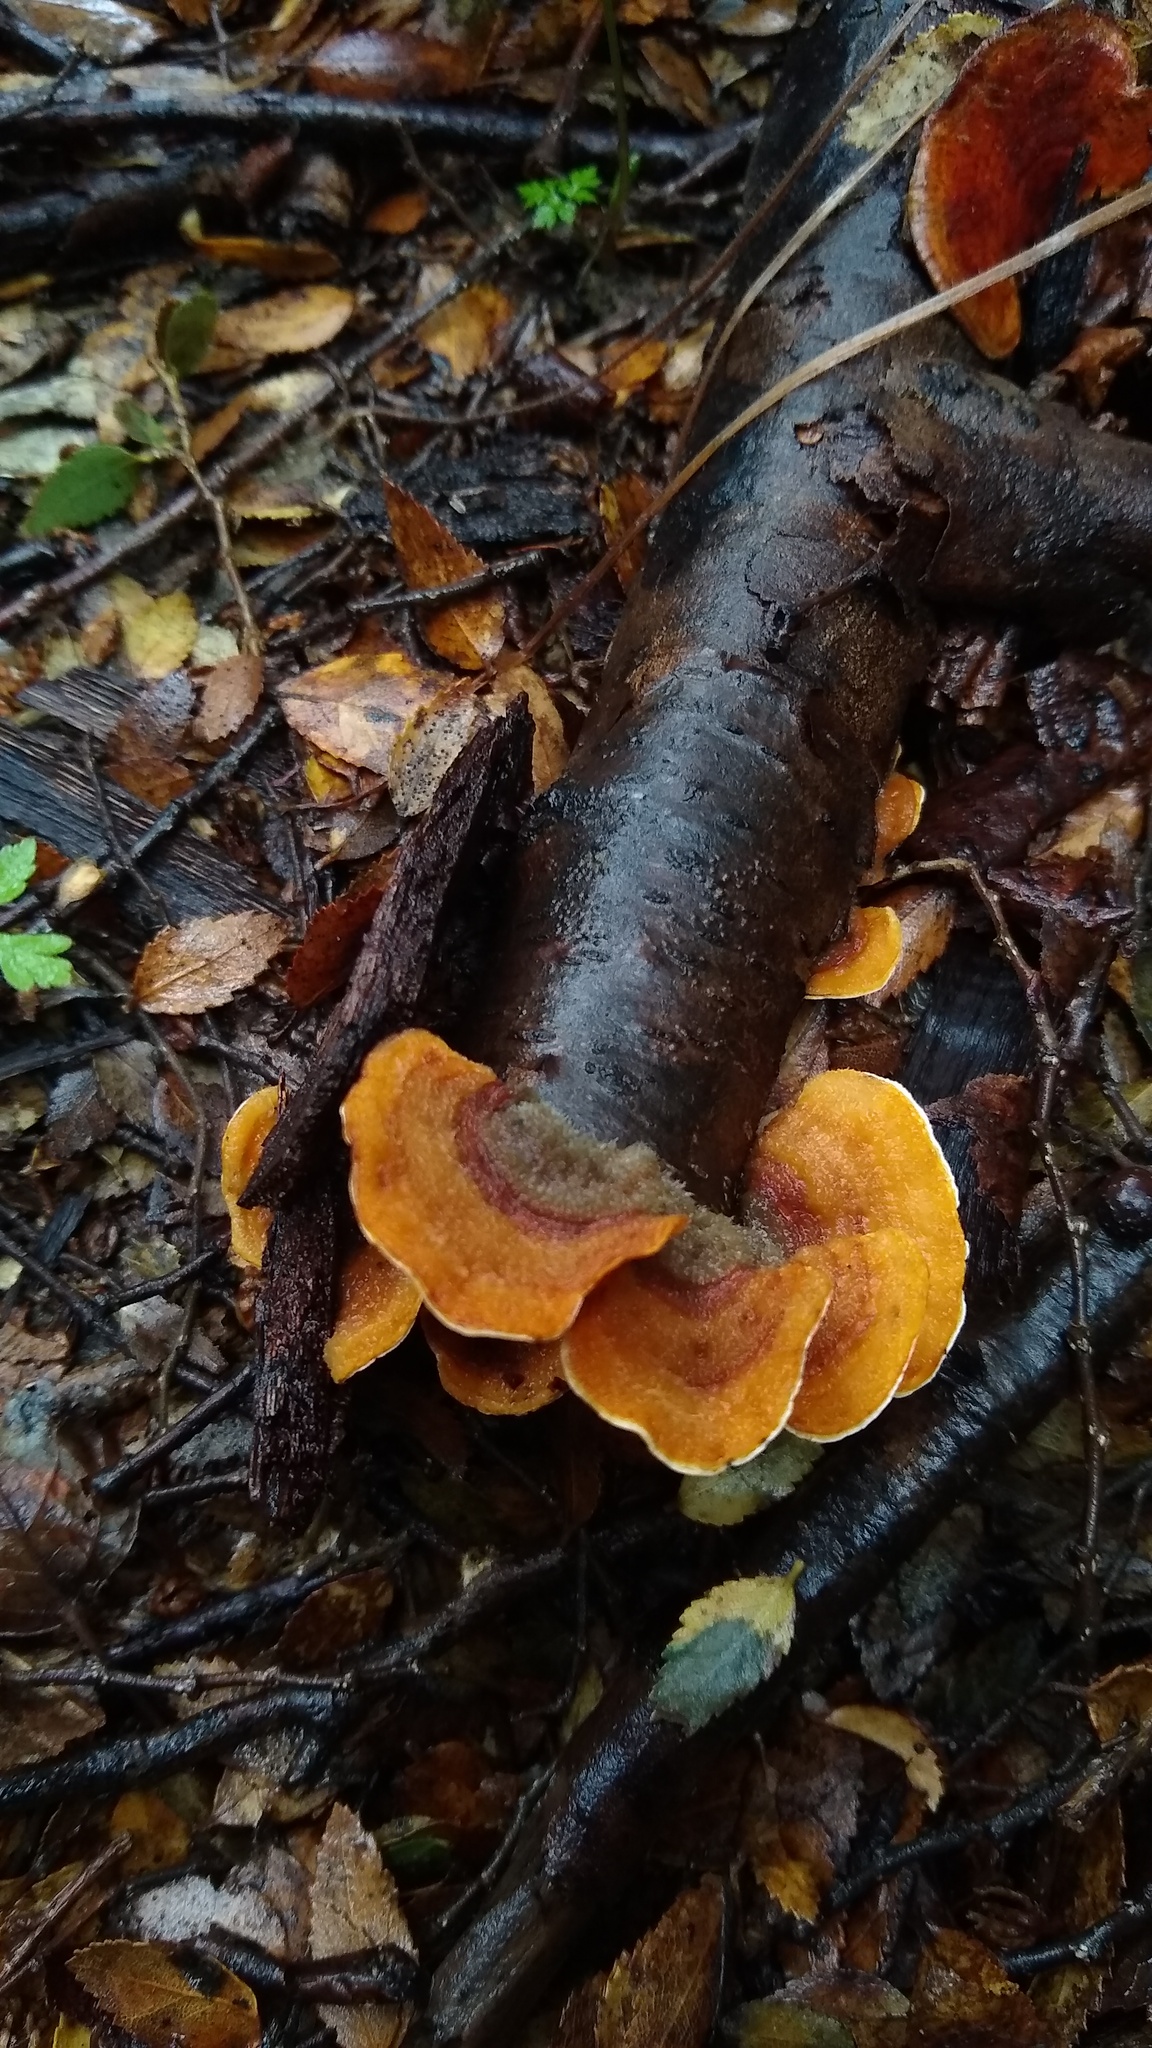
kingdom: Fungi
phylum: Basidiomycota
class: Agaricomycetes
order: Russulales
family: Stereaceae
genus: Stereum
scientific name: Stereum hirsutum
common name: Hairy curtain crust
